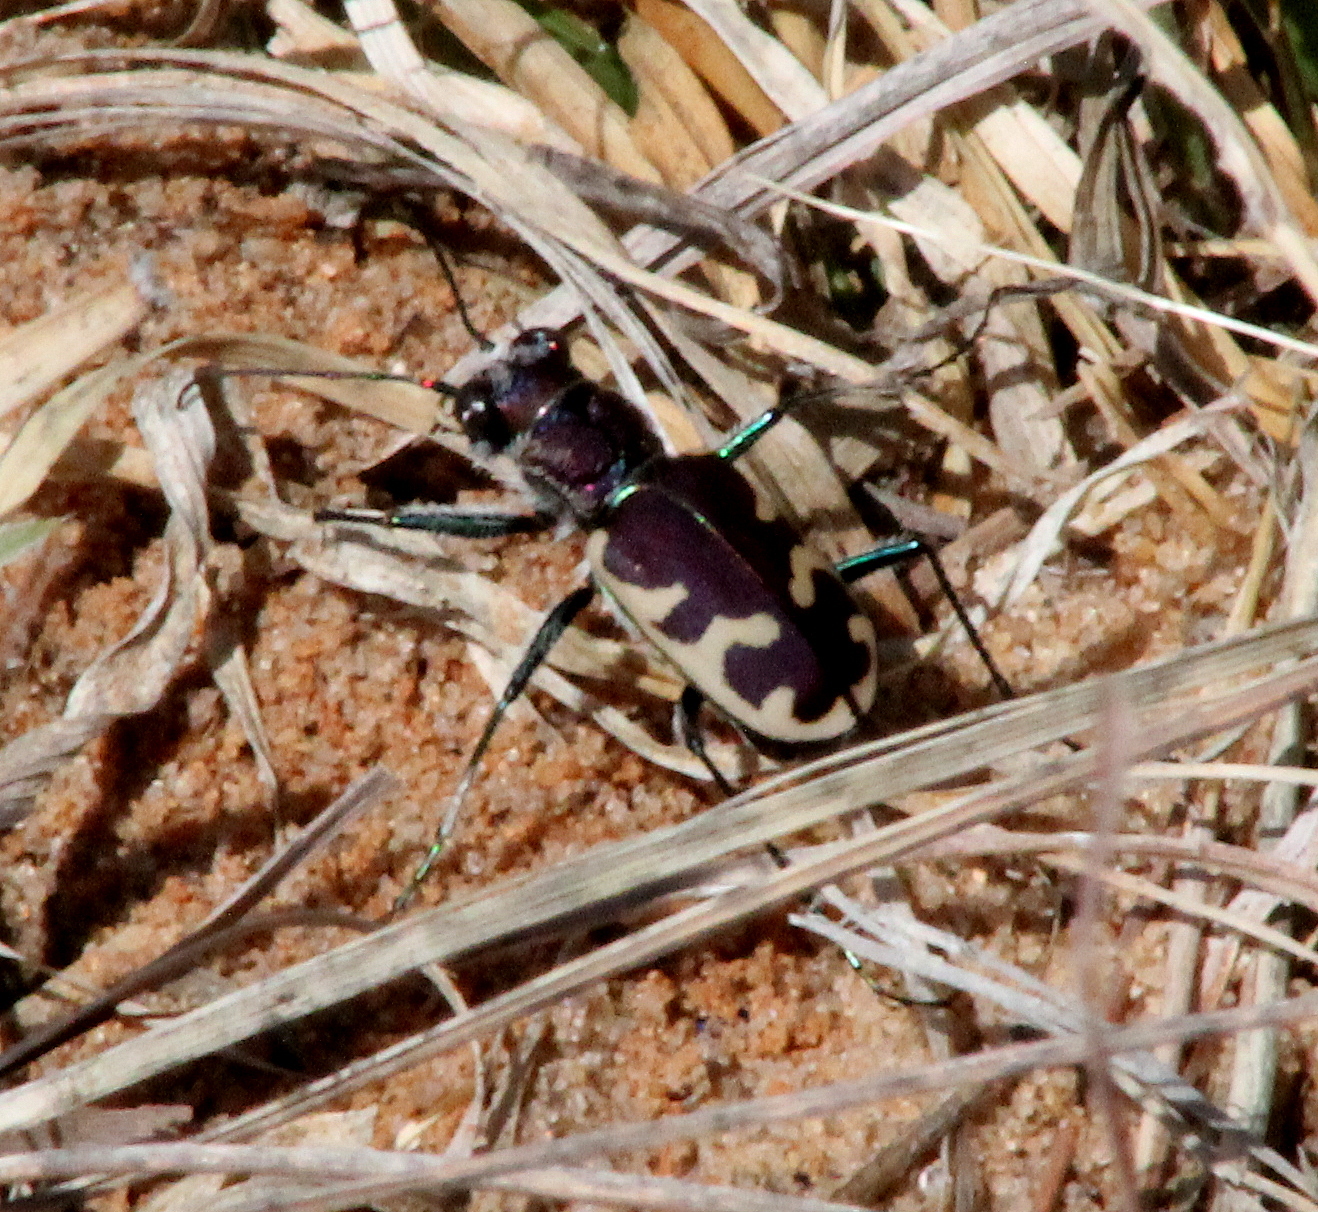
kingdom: Animalia
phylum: Arthropoda
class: Insecta
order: Coleoptera
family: Carabidae
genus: Cicindela
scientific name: Cicindela formosa
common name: Big sand tiger beetle
